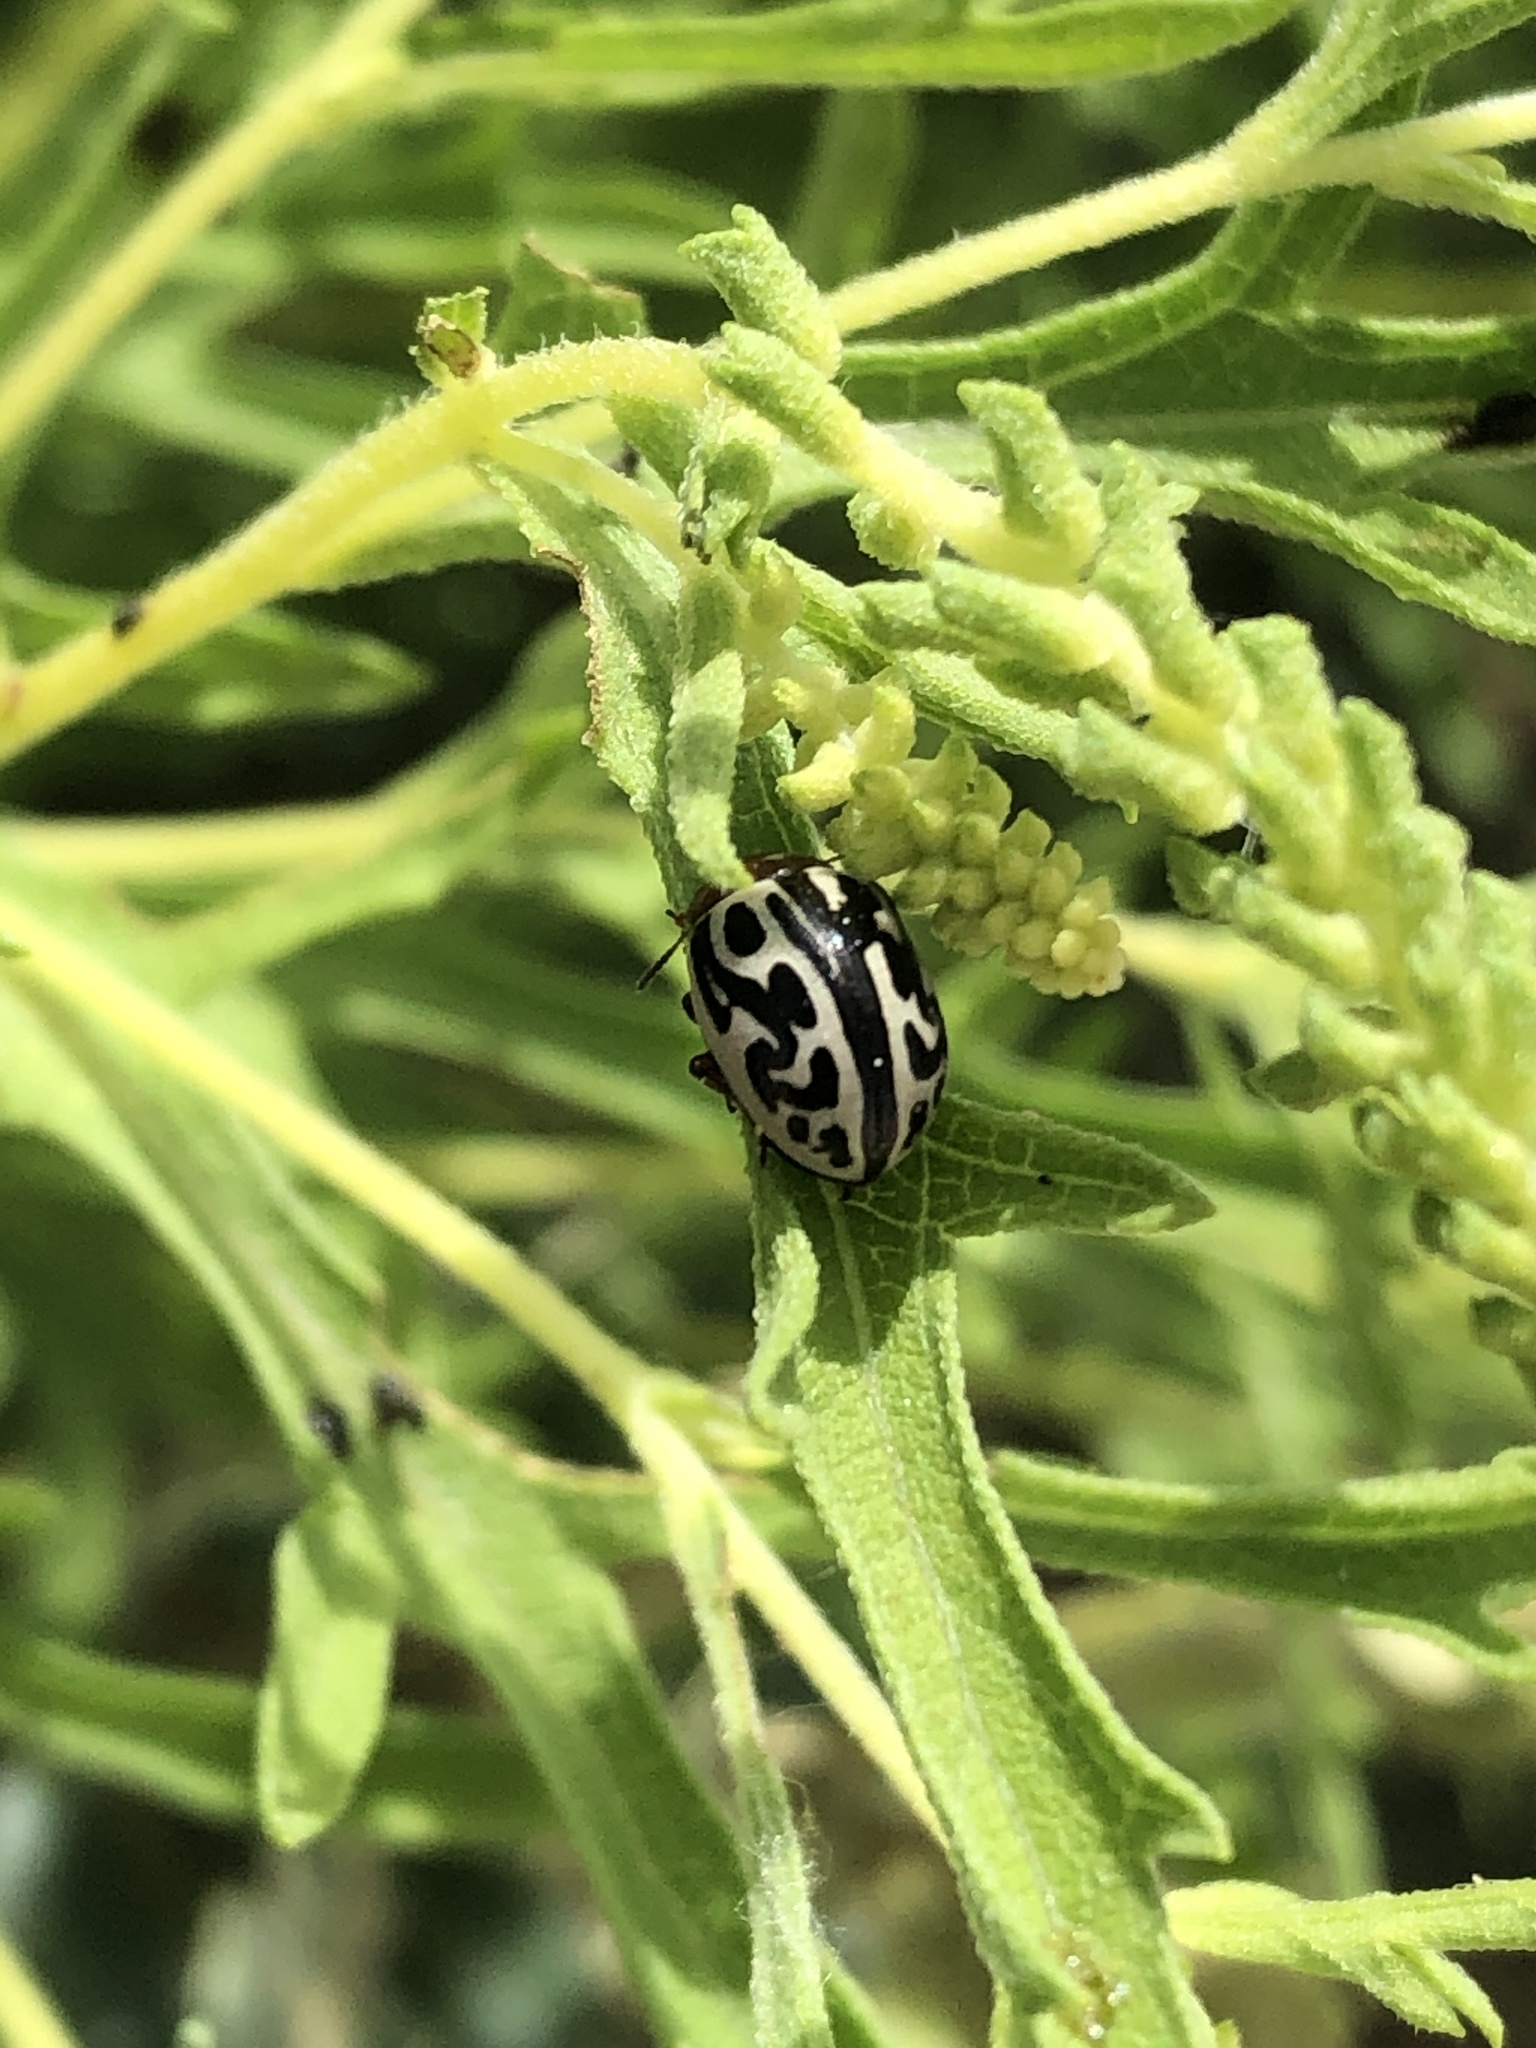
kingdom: Animalia
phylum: Arthropoda
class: Insecta
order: Coleoptera
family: Chrysomelidae
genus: Calligrapha
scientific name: Calligrapha
